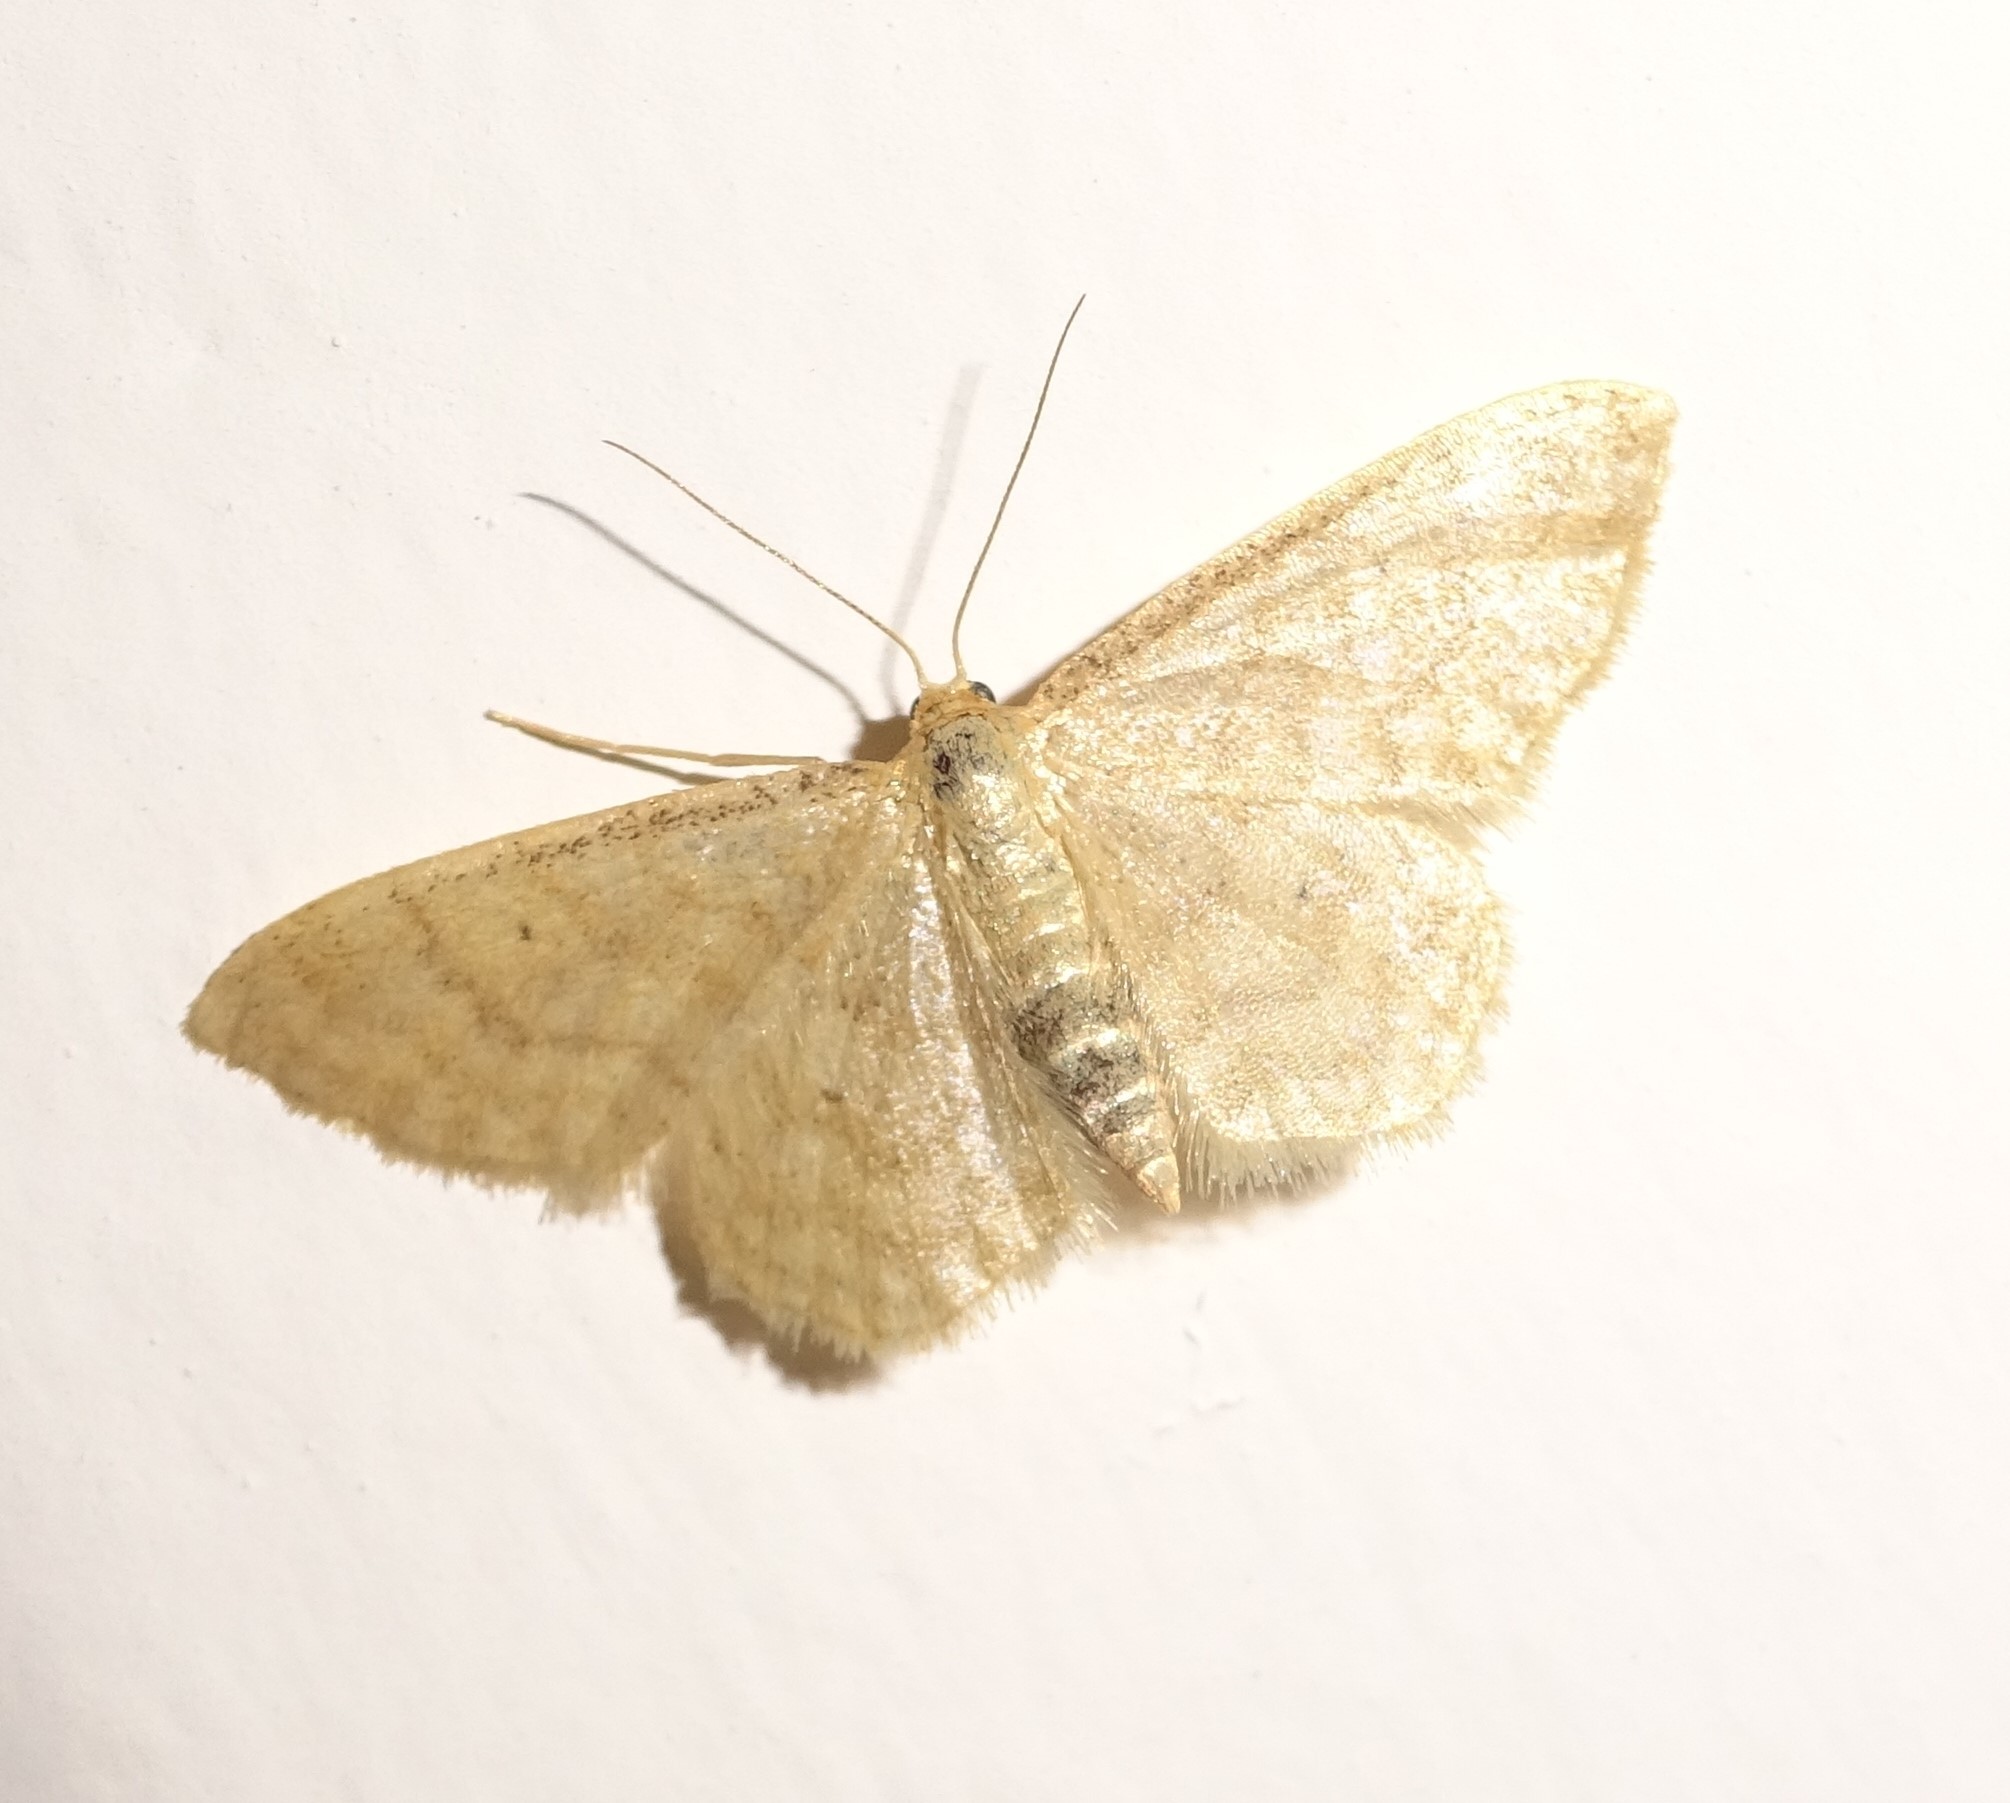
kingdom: Animalia
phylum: Arthropoda
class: Insecta
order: Lepidoptera
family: Geometridae
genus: Idaea
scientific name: Idaea dilutaria
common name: Silky wave
